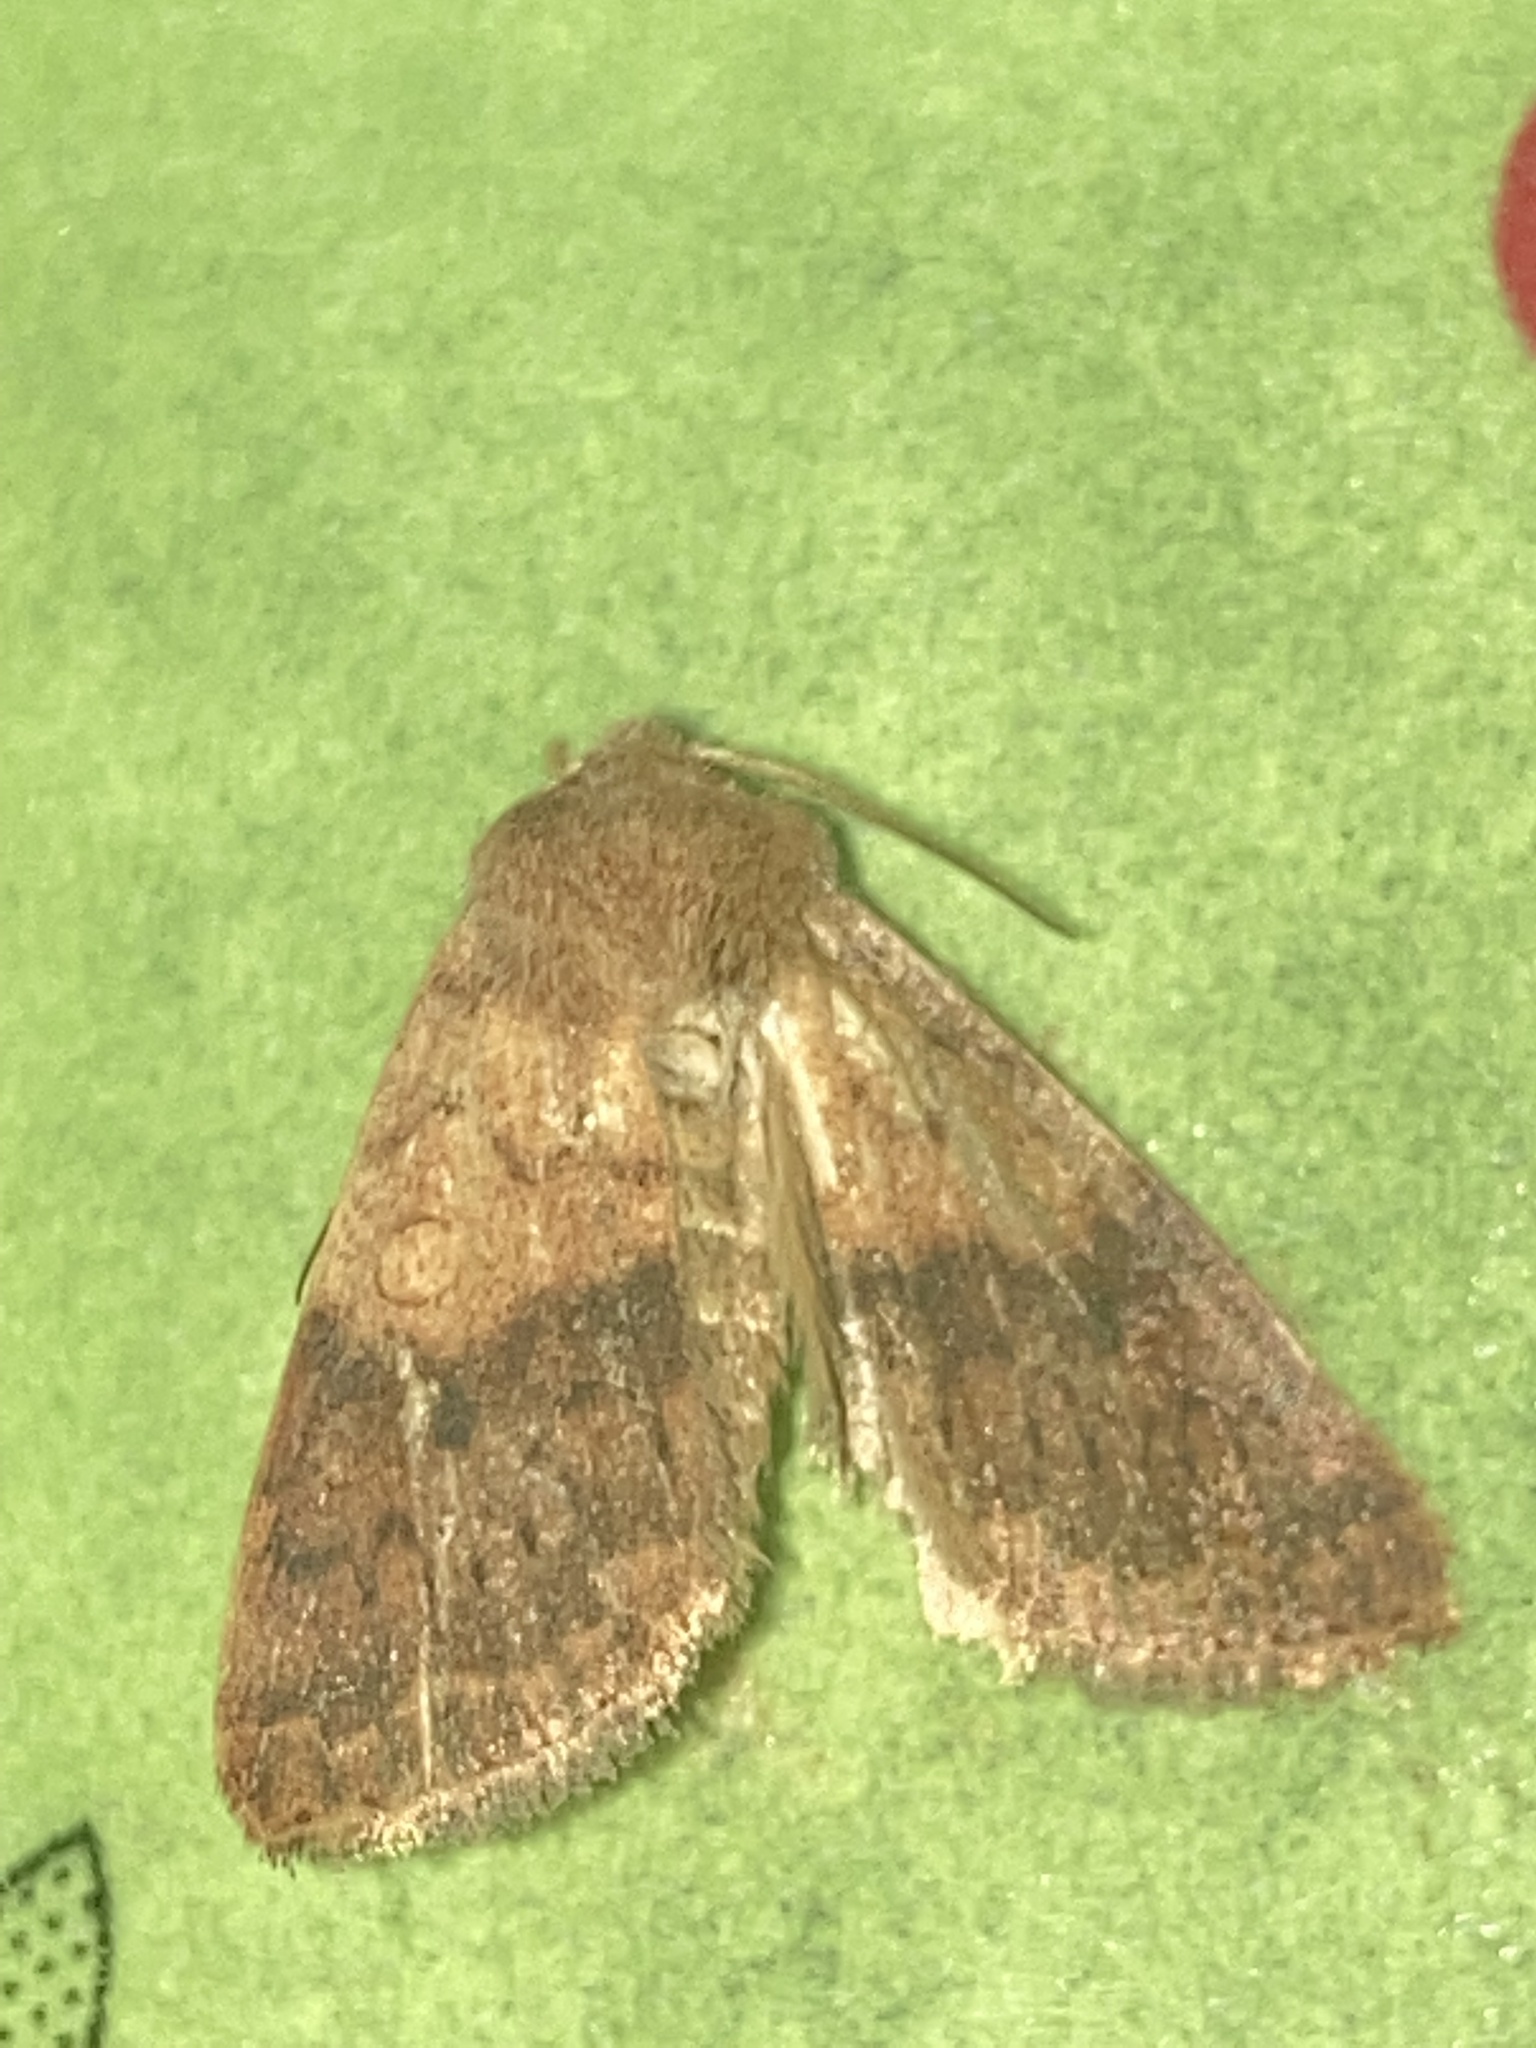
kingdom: Animalia
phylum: Arthropoda
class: Insecta
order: Lepidoptera
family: Noctuidae
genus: Agrochola
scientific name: Agrochola bicolorago
